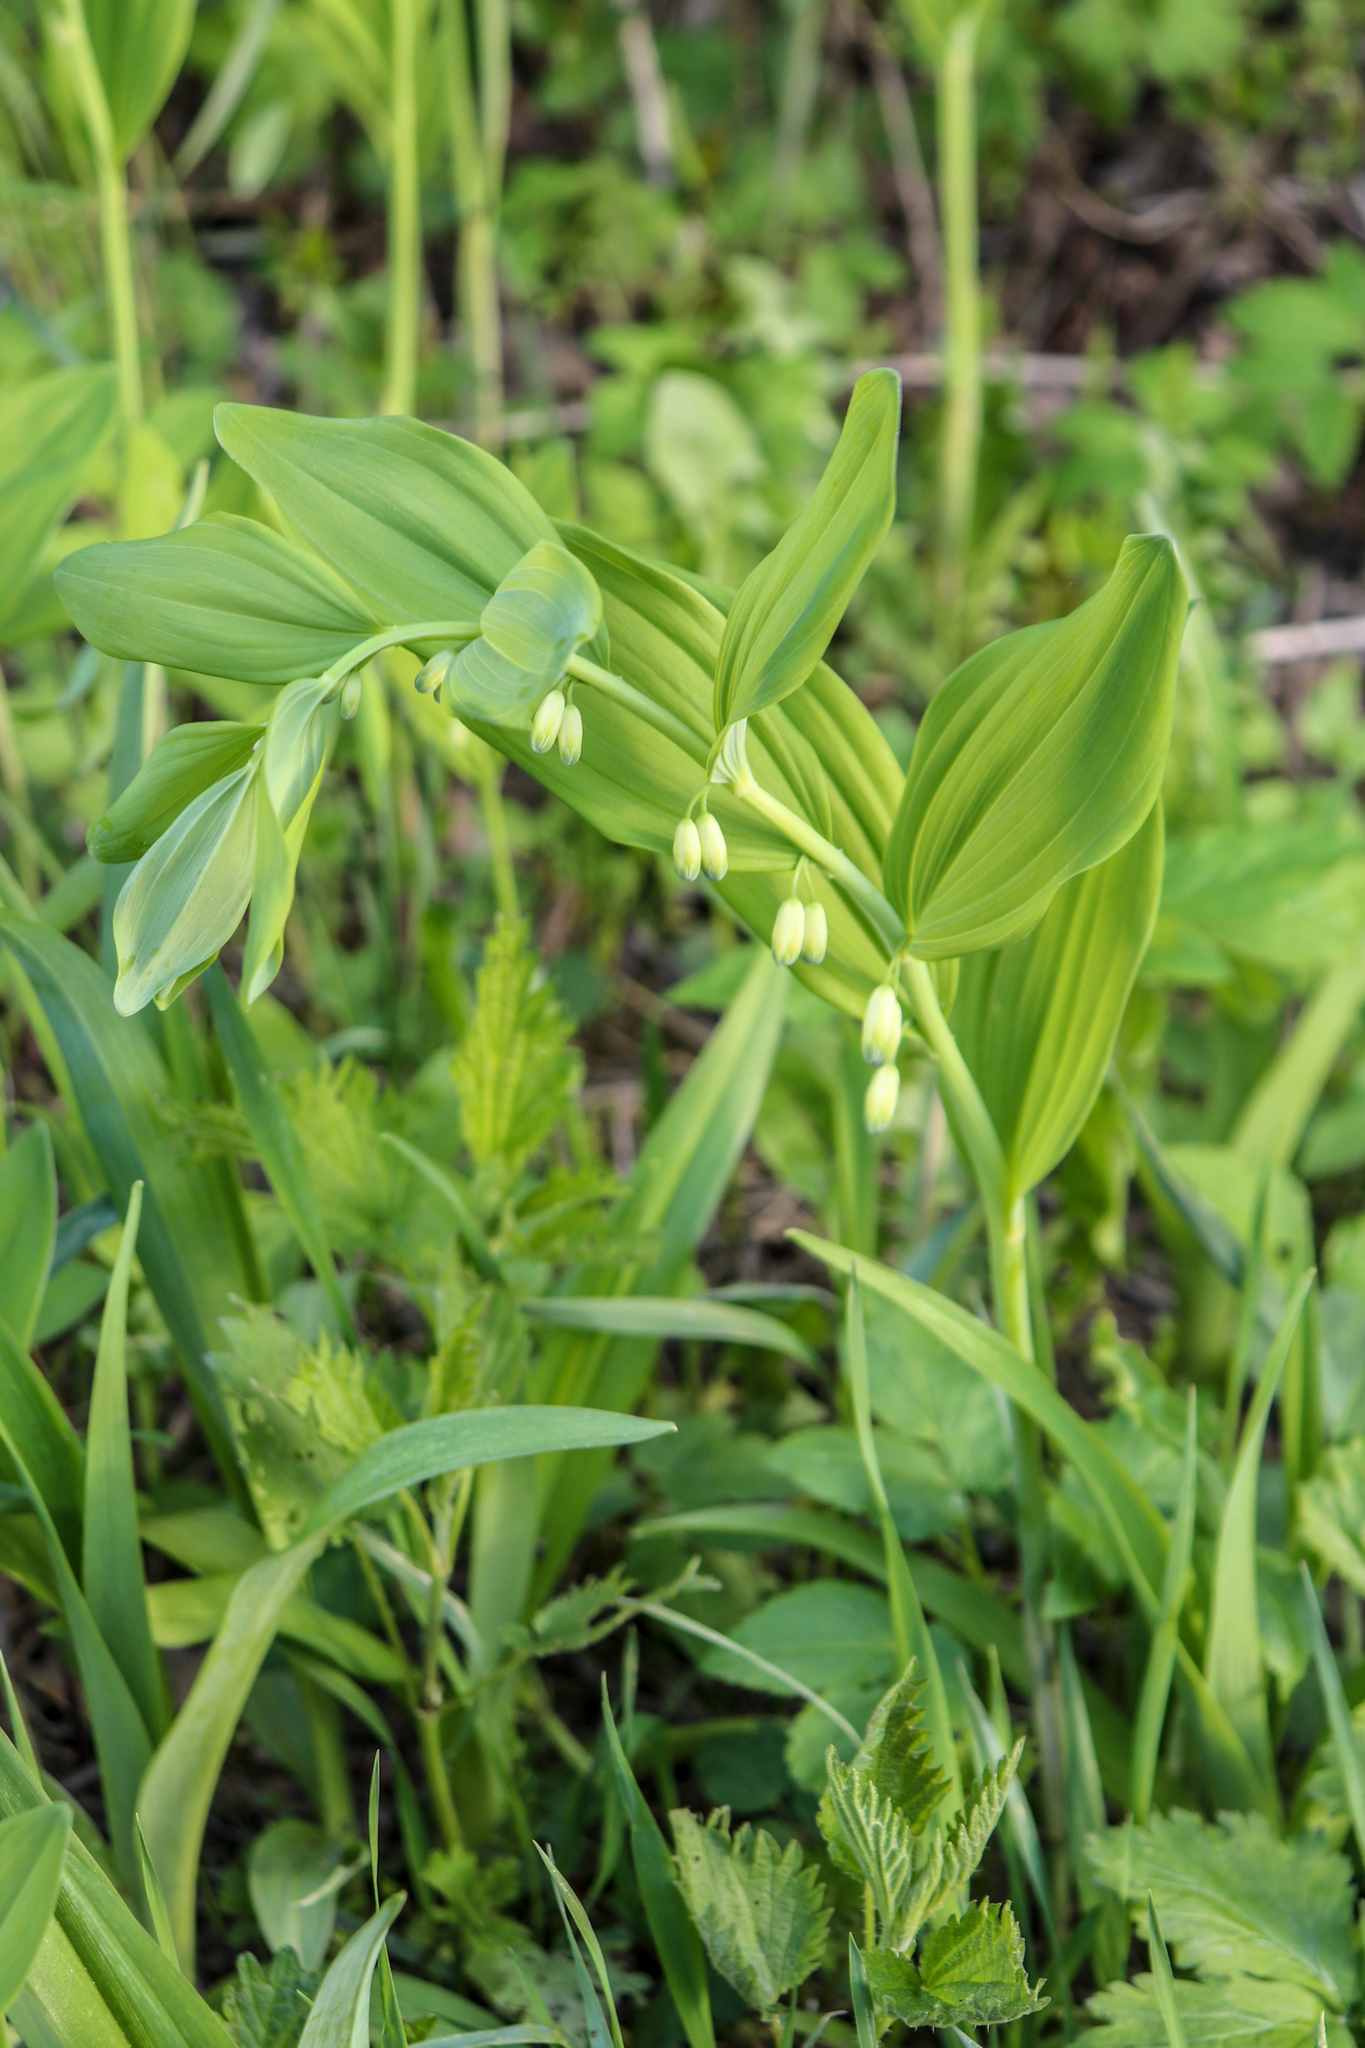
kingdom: Plantae
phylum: Tracheophyta
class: Liliopsida
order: Asparagales
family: Asparagaceae
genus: Polygonatum
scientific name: Polygonatum multiflorum
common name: Solomon's-seal
